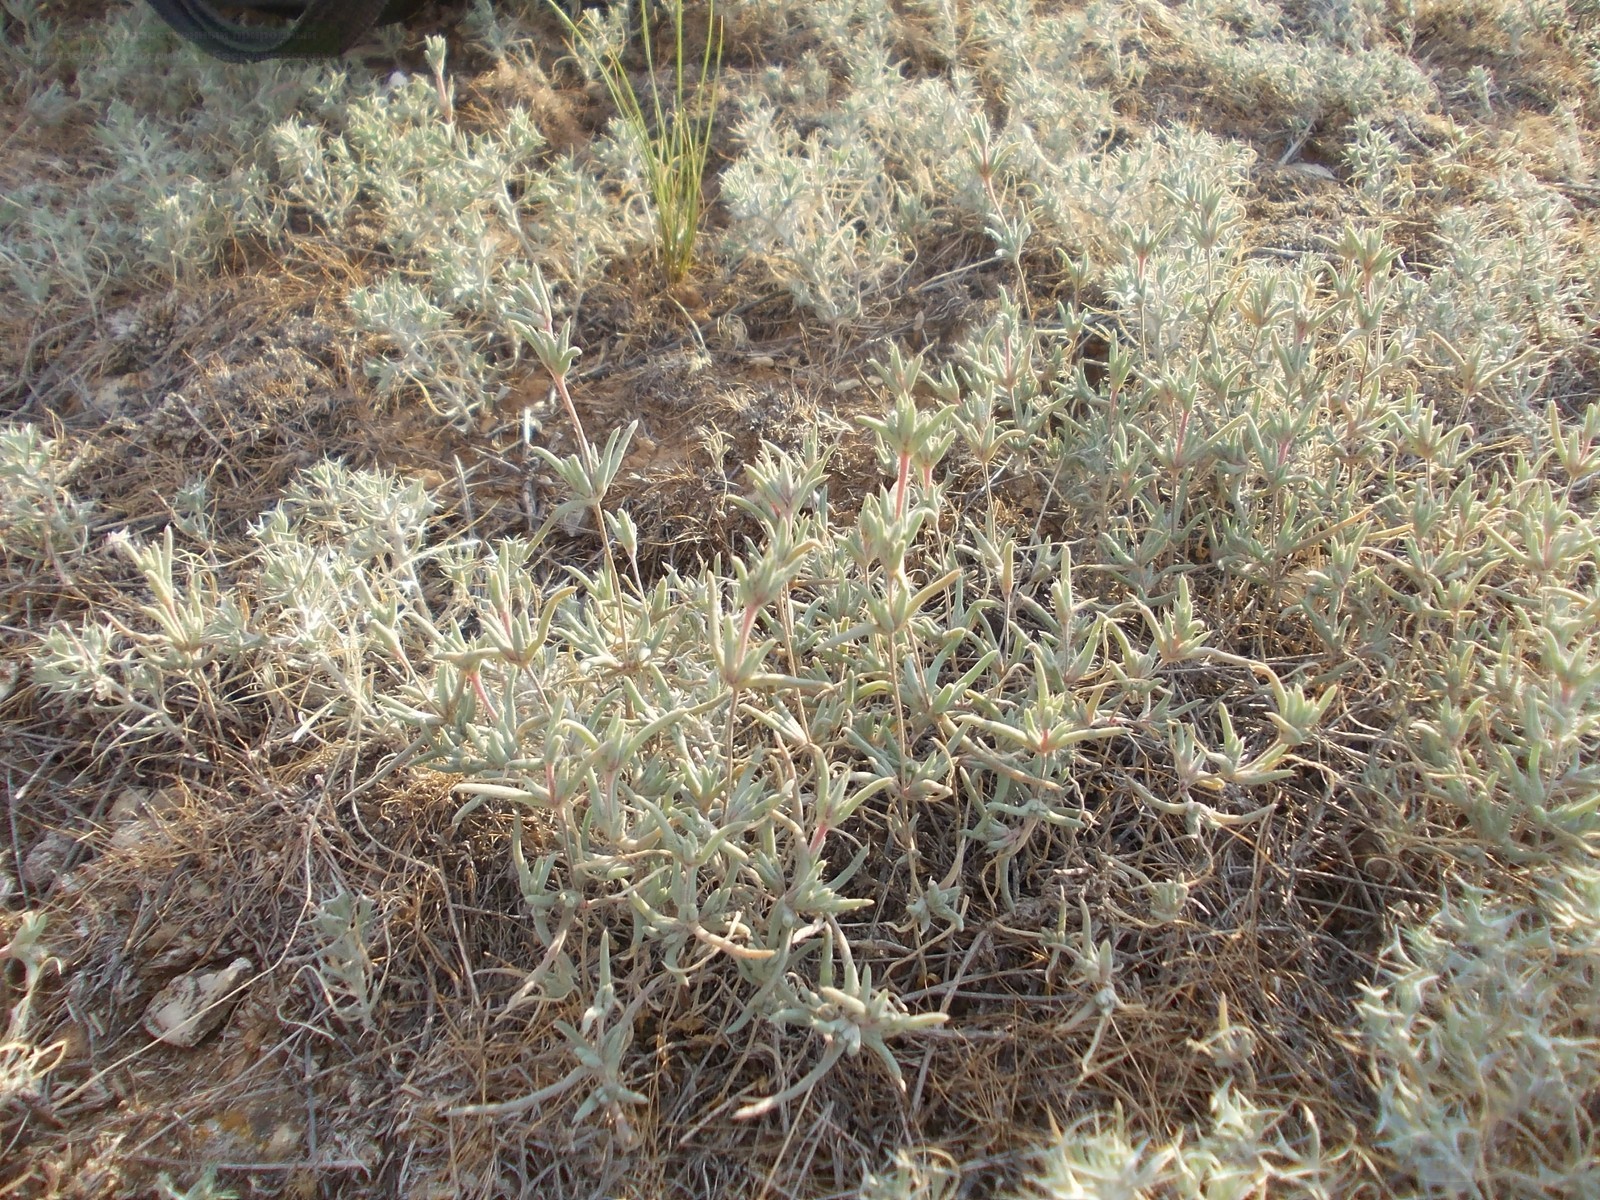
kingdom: Plantae
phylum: Tracheophyta
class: Magnoliopsida
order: Caryophyllales
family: Amaranthaceae
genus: Pyankovia
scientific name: Pyankovia brachiata
